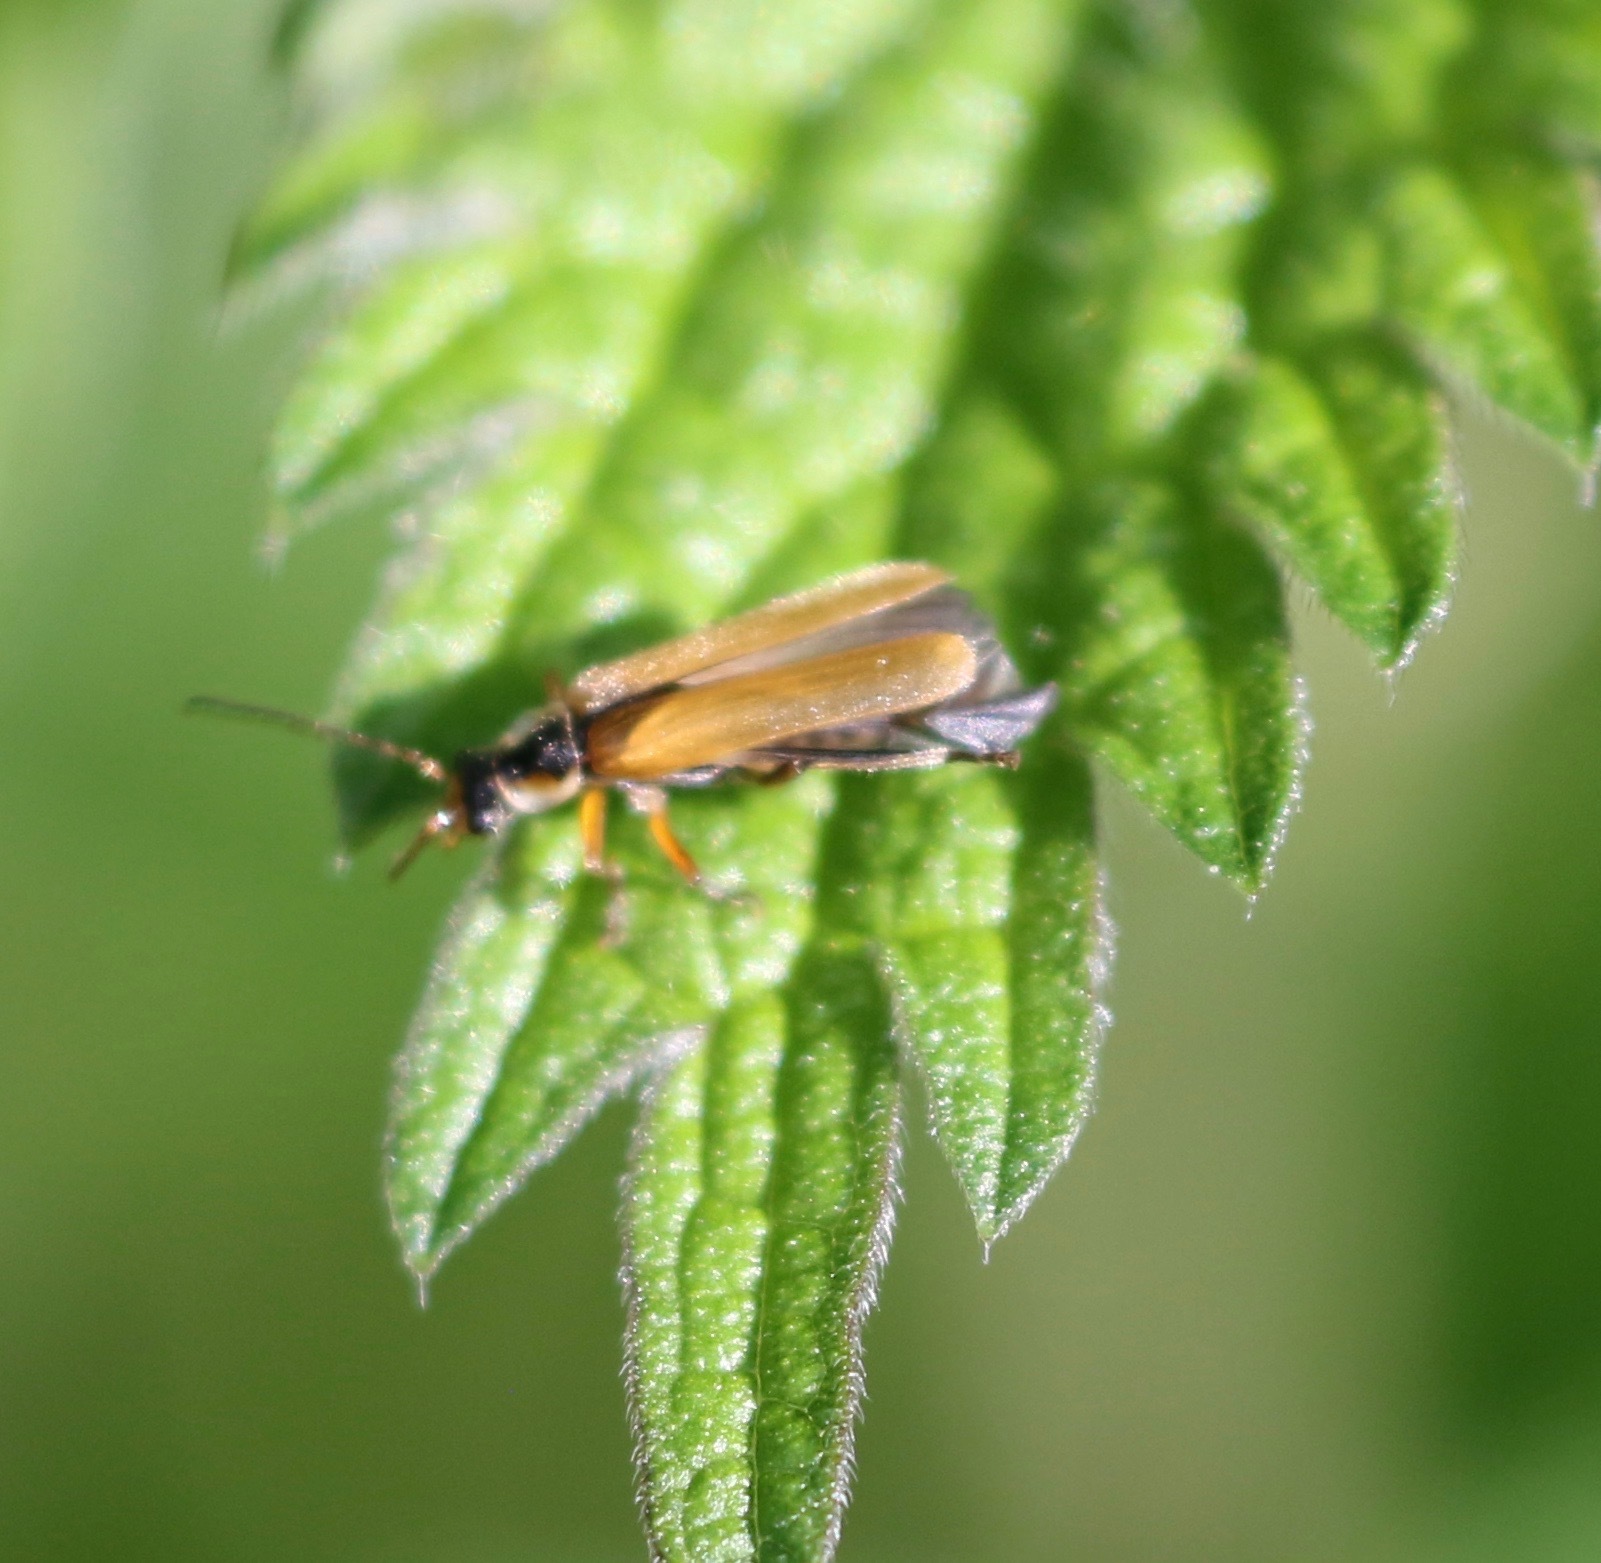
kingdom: Animalia
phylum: Arthropoda
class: Insecta
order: Coleoptera
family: Cantharidae
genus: Cantharis
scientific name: Cantharis decipiens
